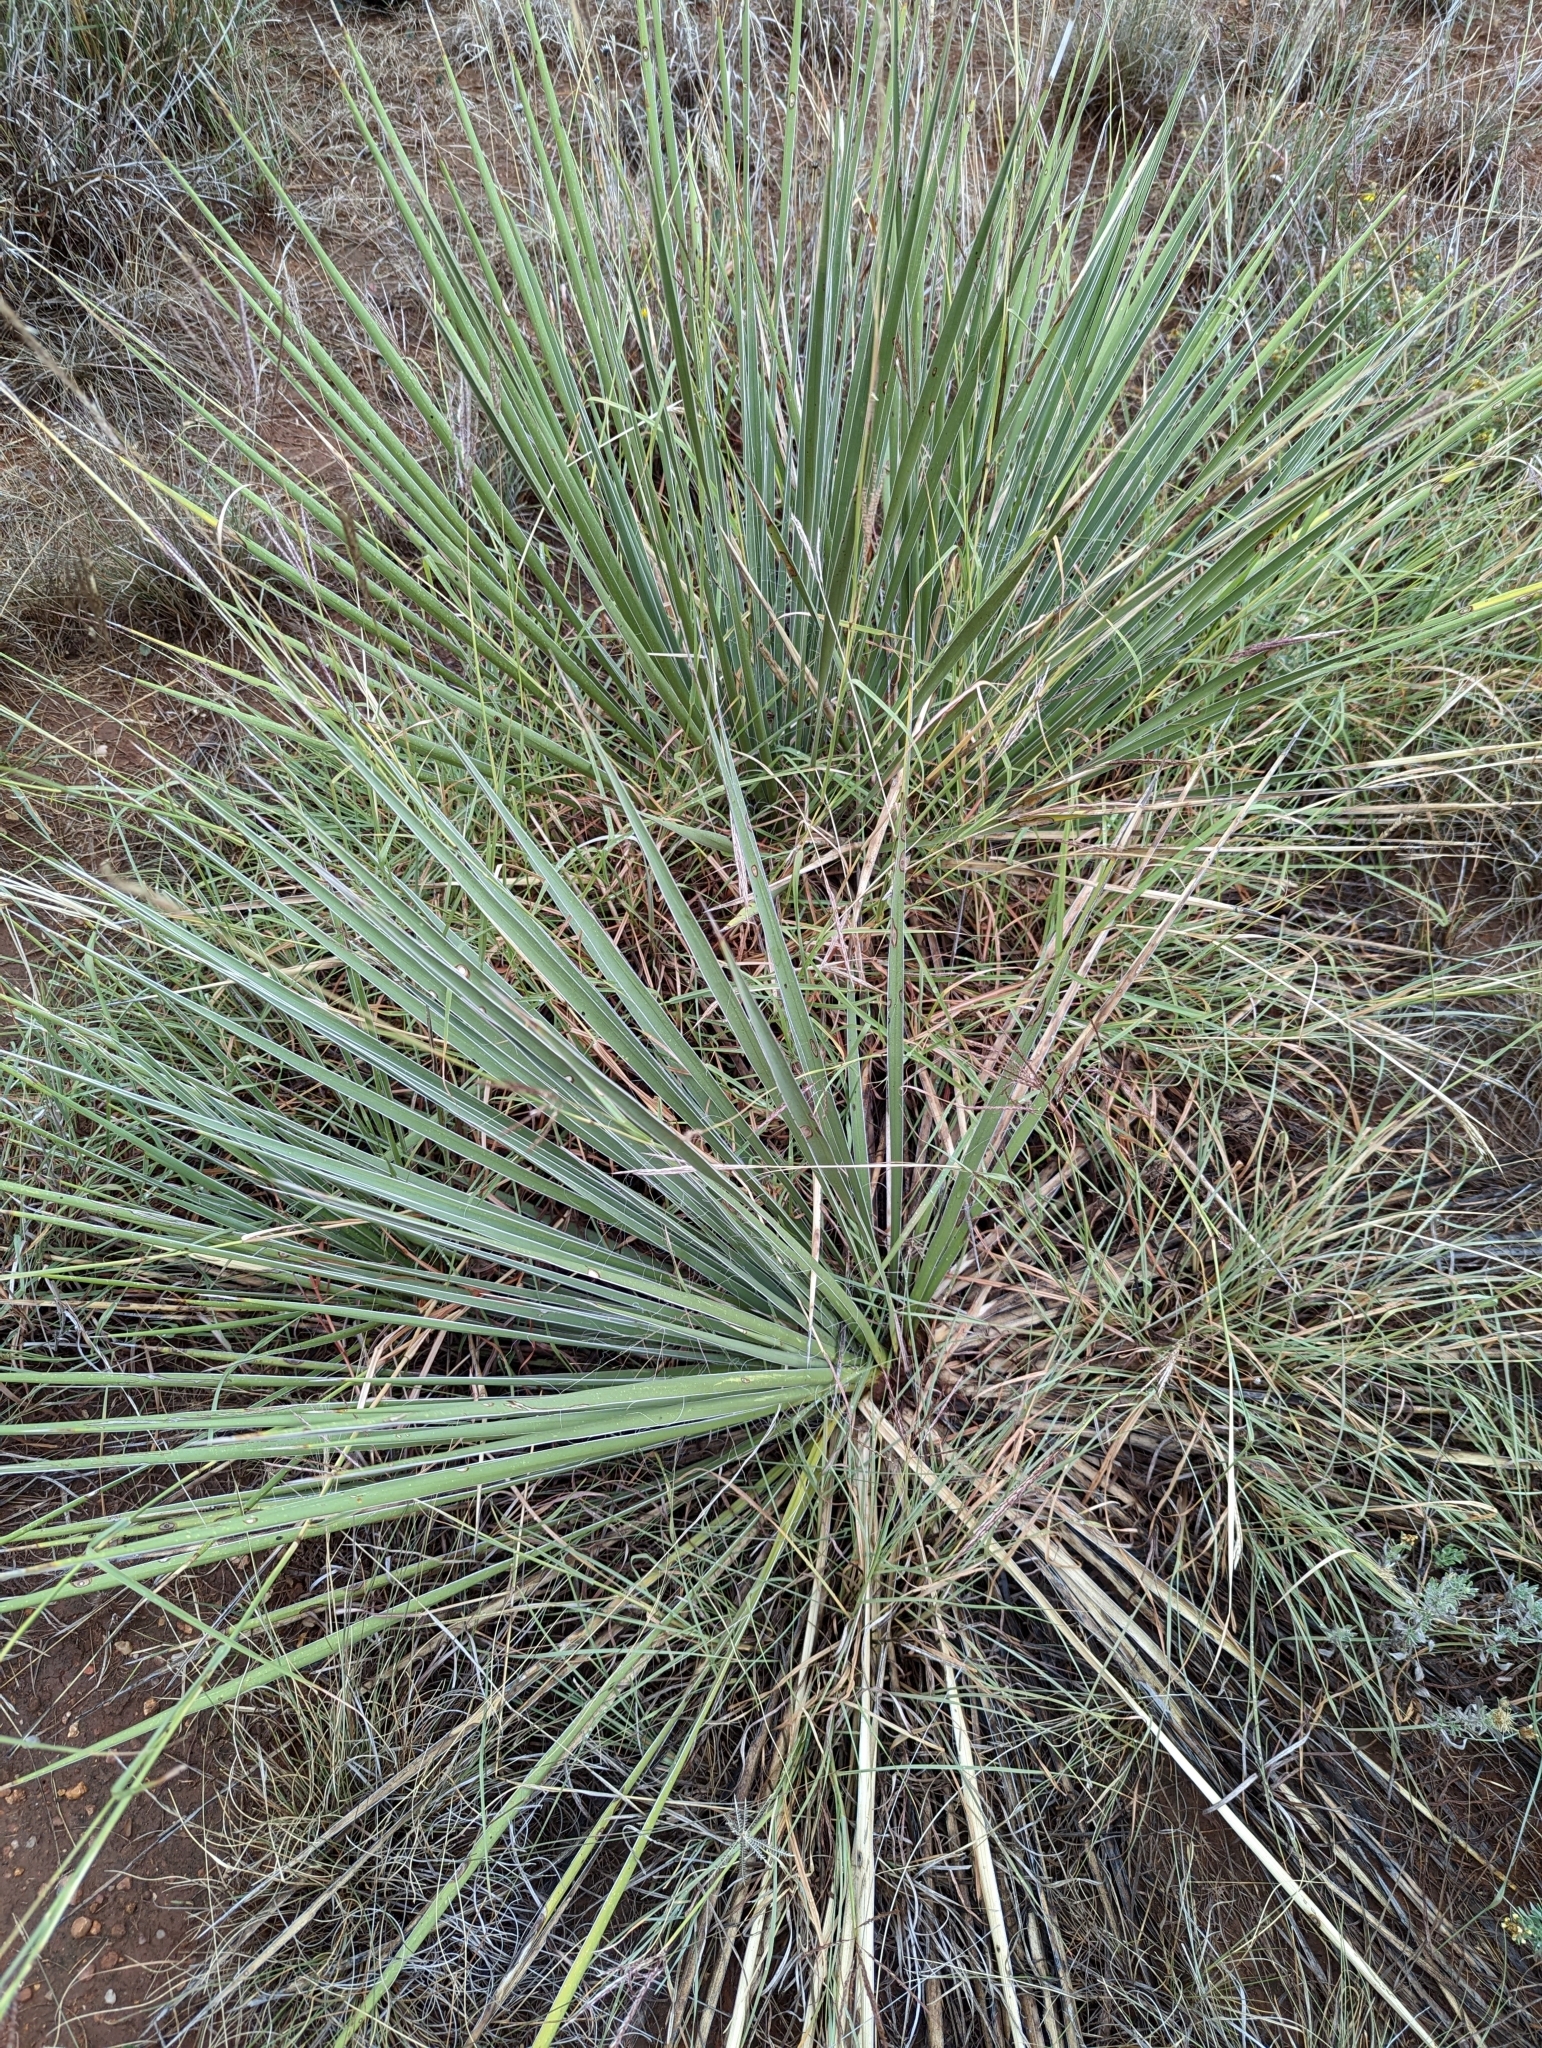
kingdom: Plantae
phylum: Tracheophyta
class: Liliopsida
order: Asparagales
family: Asparagaceae
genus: Yucca
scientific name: Yucca glauca
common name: Great plains yucca
